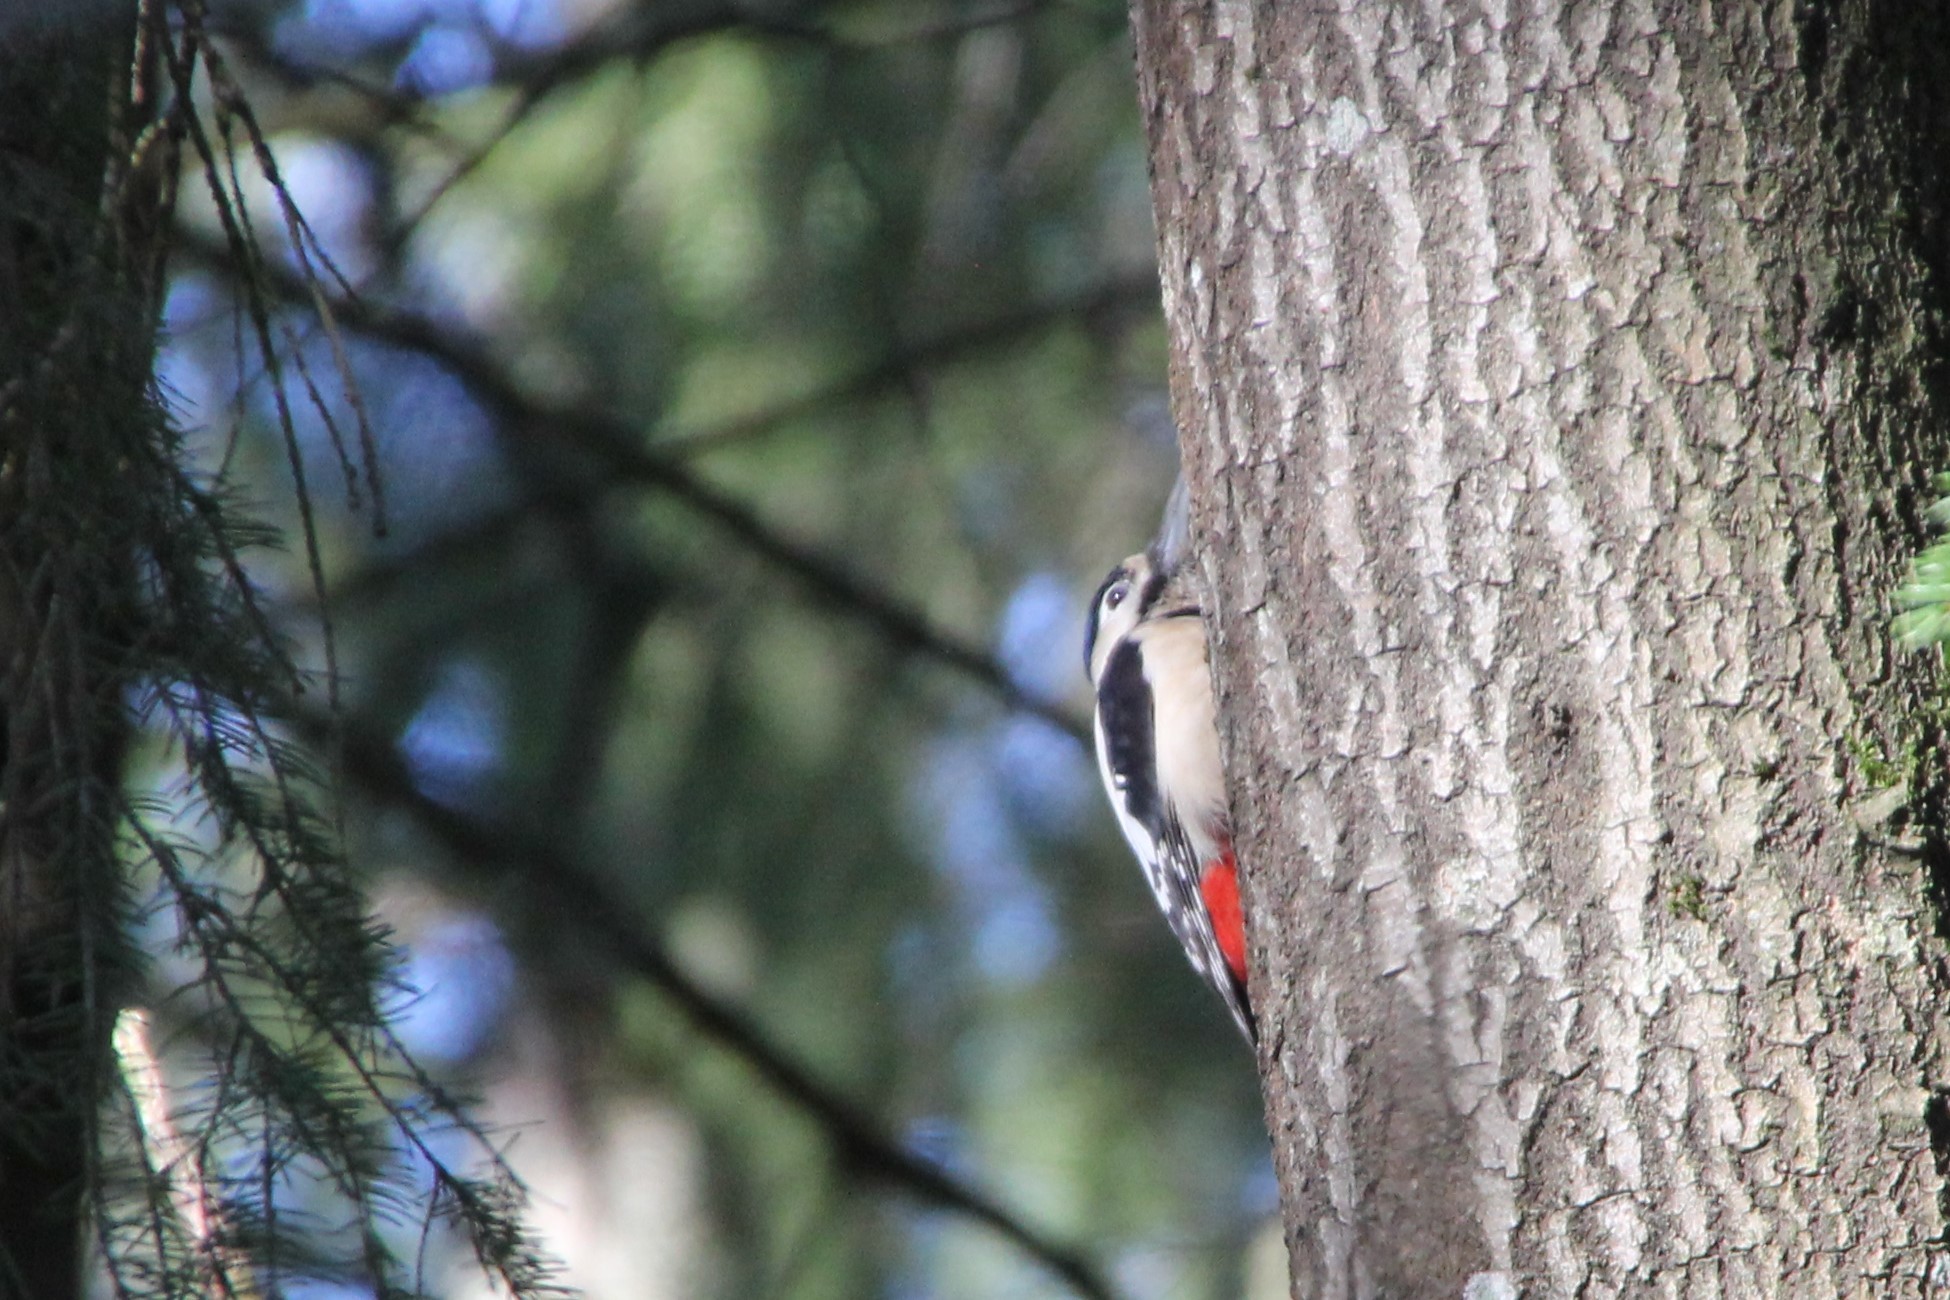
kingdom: Animalia
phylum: Chordata
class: Aves
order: Piciformes
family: Picidae
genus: Dendrocopos
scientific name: Dendrocopos major
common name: Great spotted woodpecker
